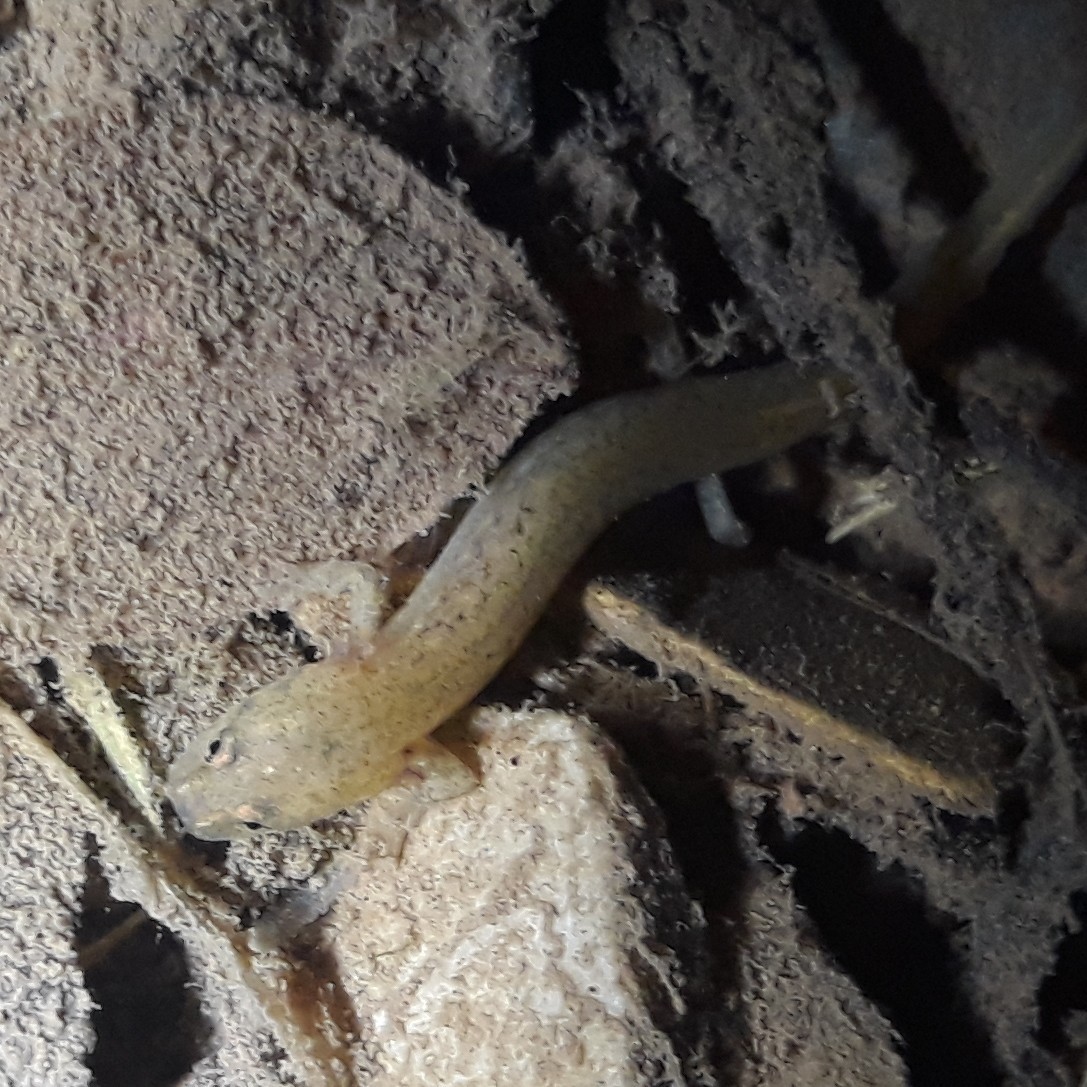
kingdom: Animalia
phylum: Chordata
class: Amphibia
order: Caudata
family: Plethodontidae
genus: Eurycea
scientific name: Eurycea cirrigera
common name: Southern two-lined salamander
